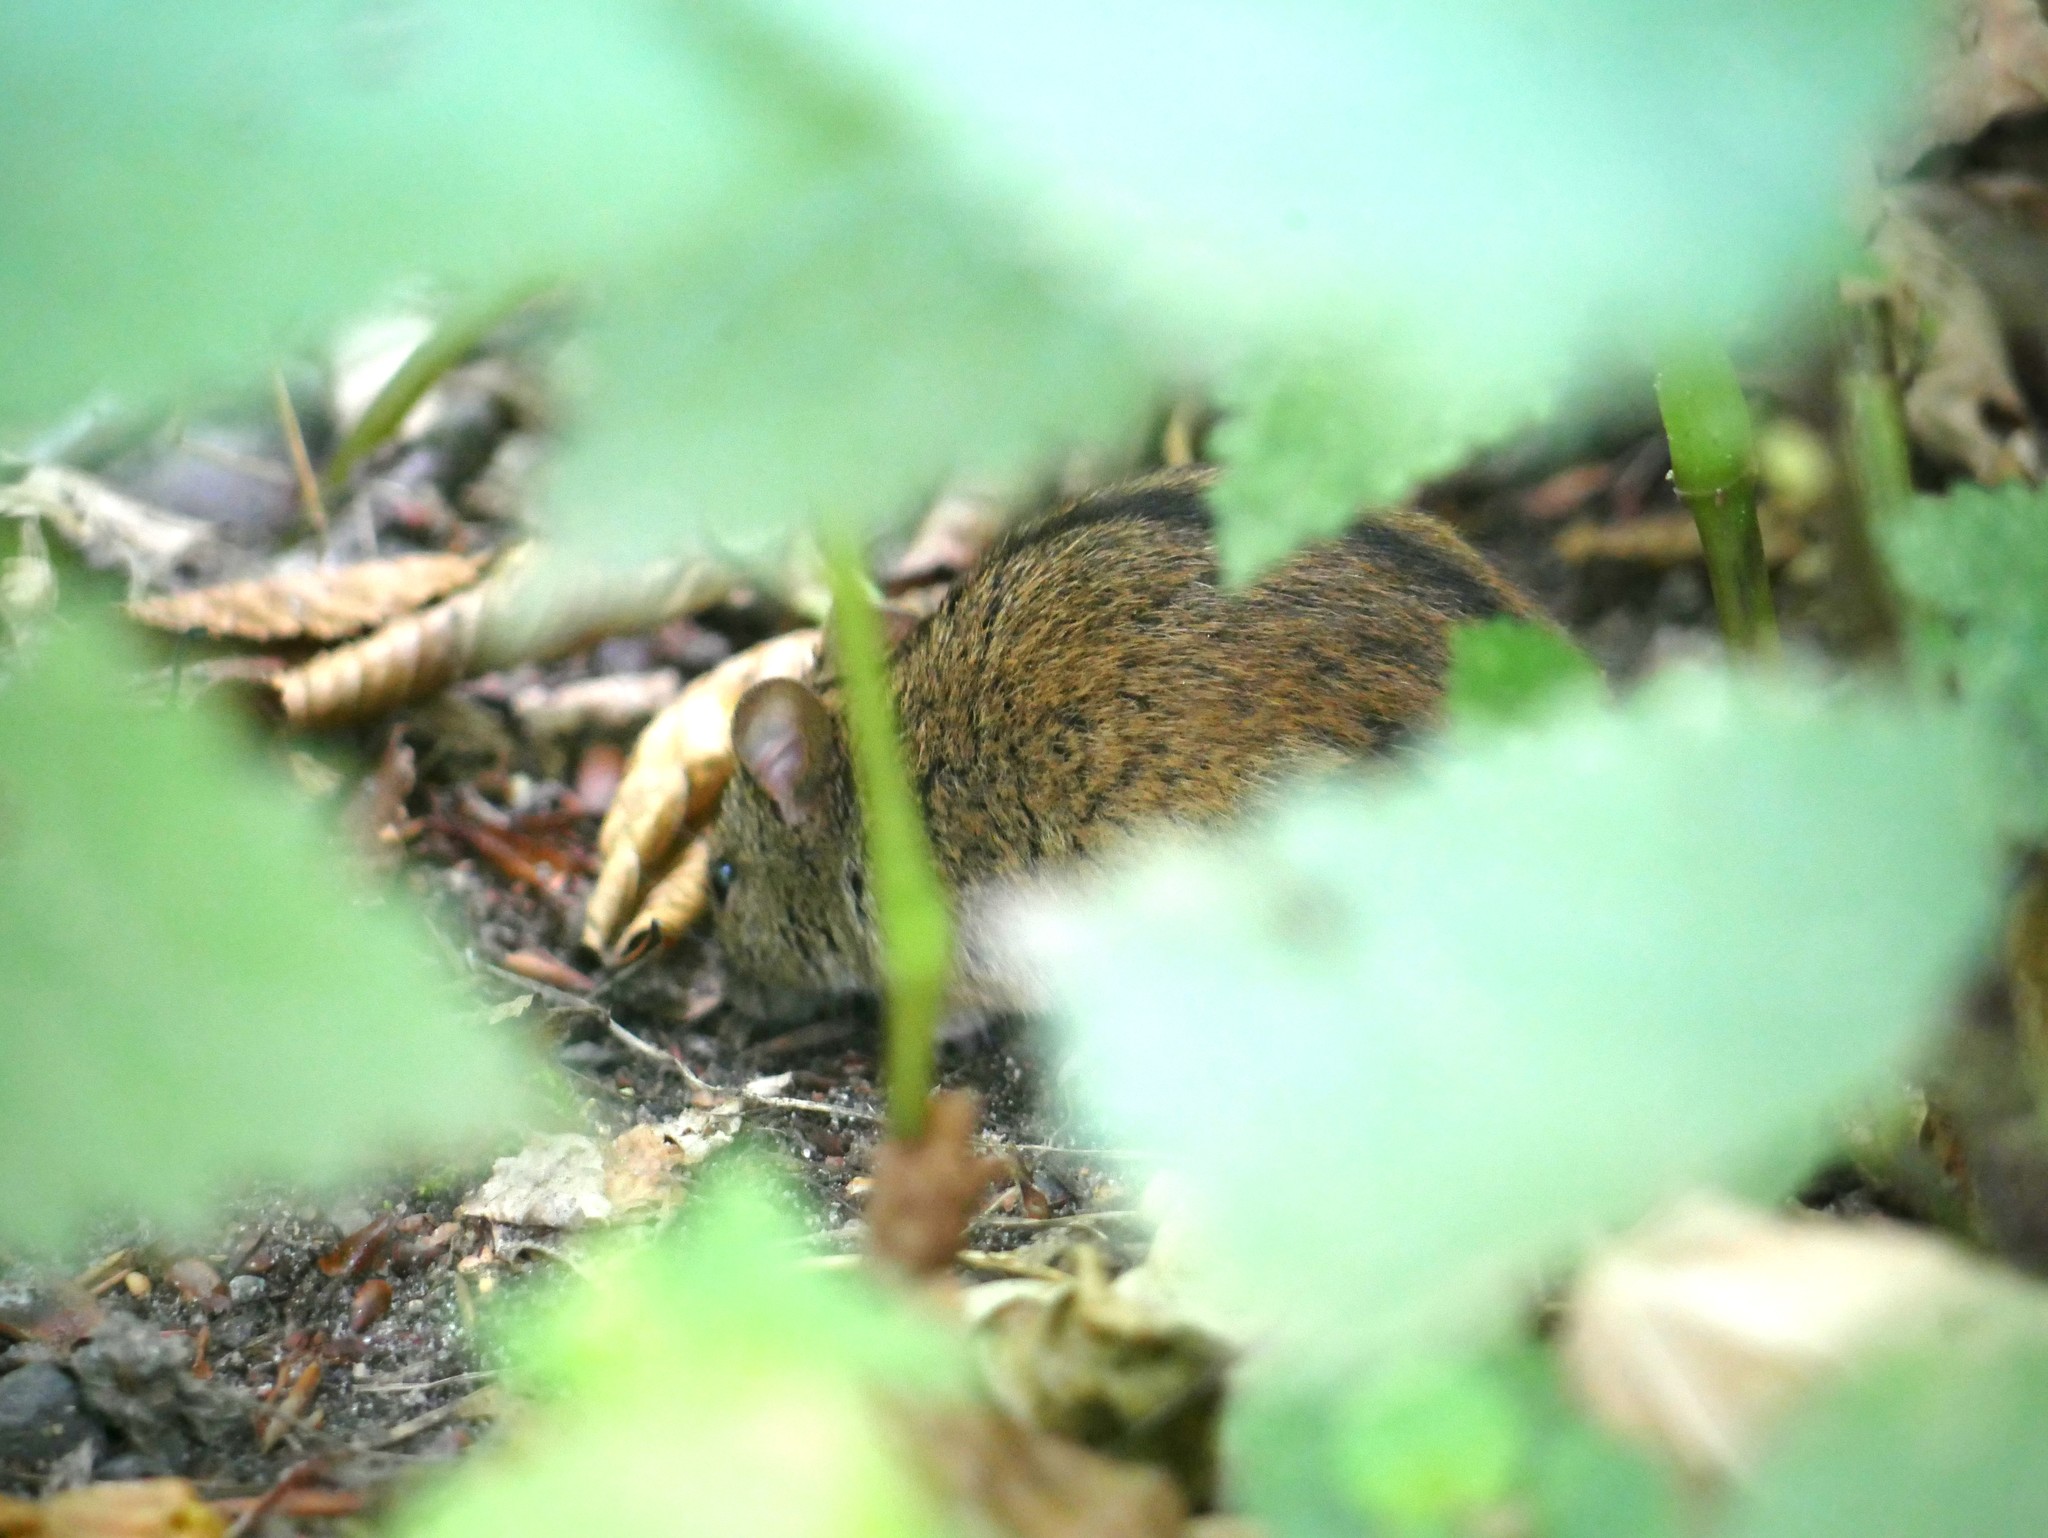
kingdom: Animalia
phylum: Chordata
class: Mammalia
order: Rodentia
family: Muridae
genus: Apodemus
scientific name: Apodemus agrarius
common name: Striped field mouse
